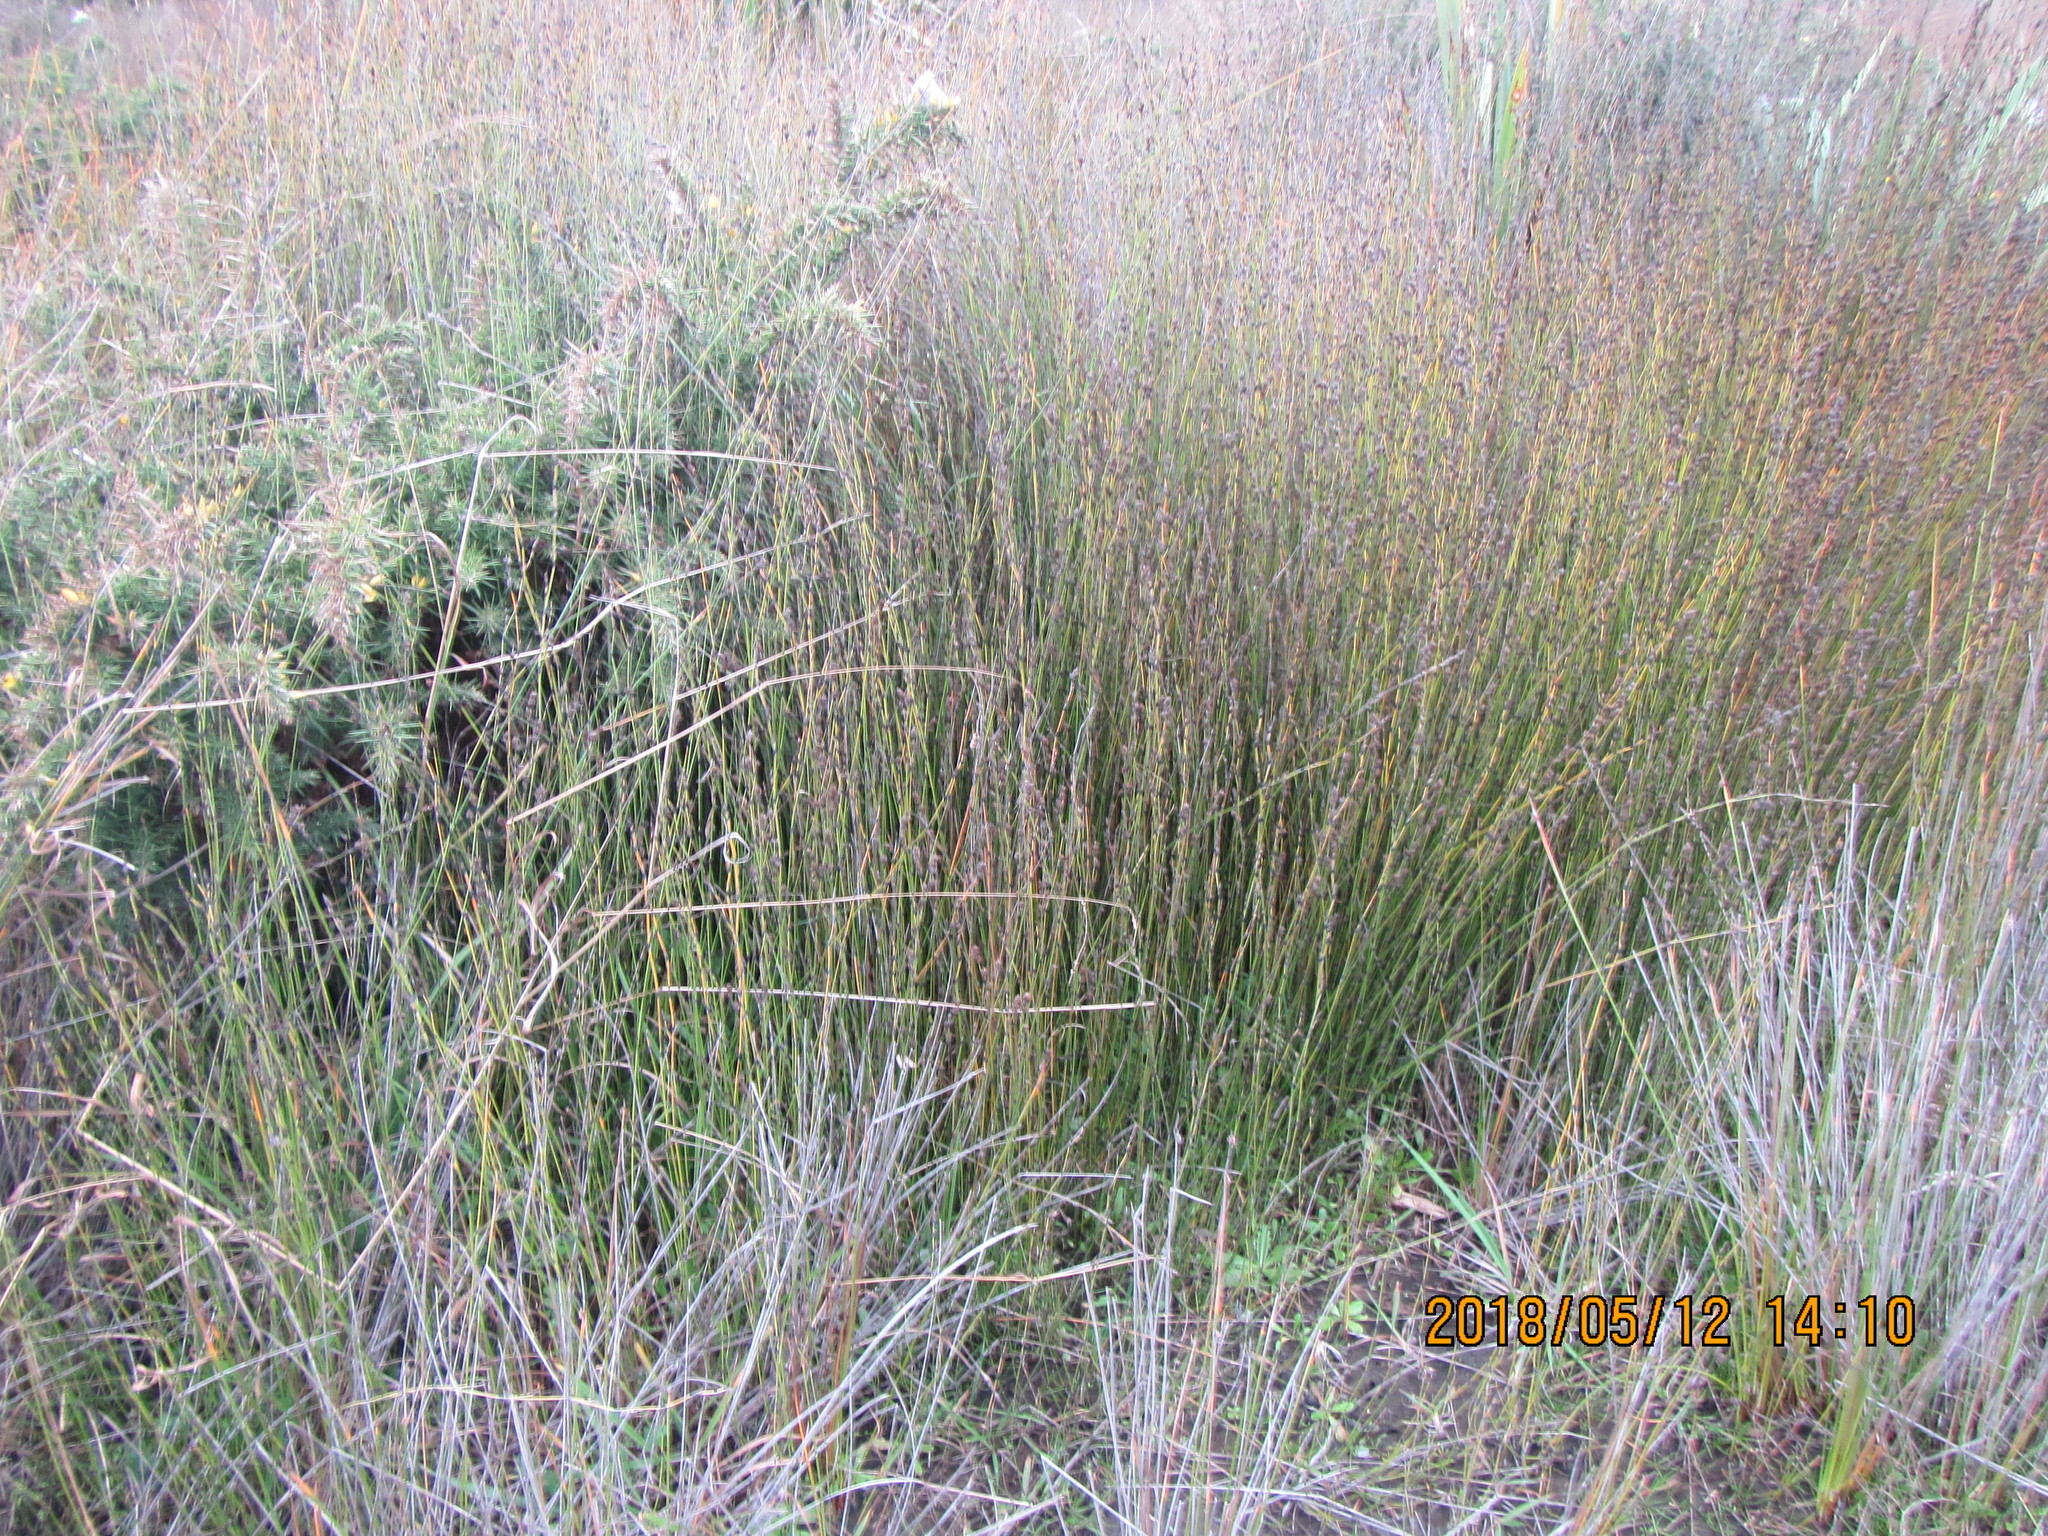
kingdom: Plantae
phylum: Tracheophyta
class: Liliopsida
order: Poales
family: Restionaceae
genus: Apodasmia
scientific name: Apodasmia similis
